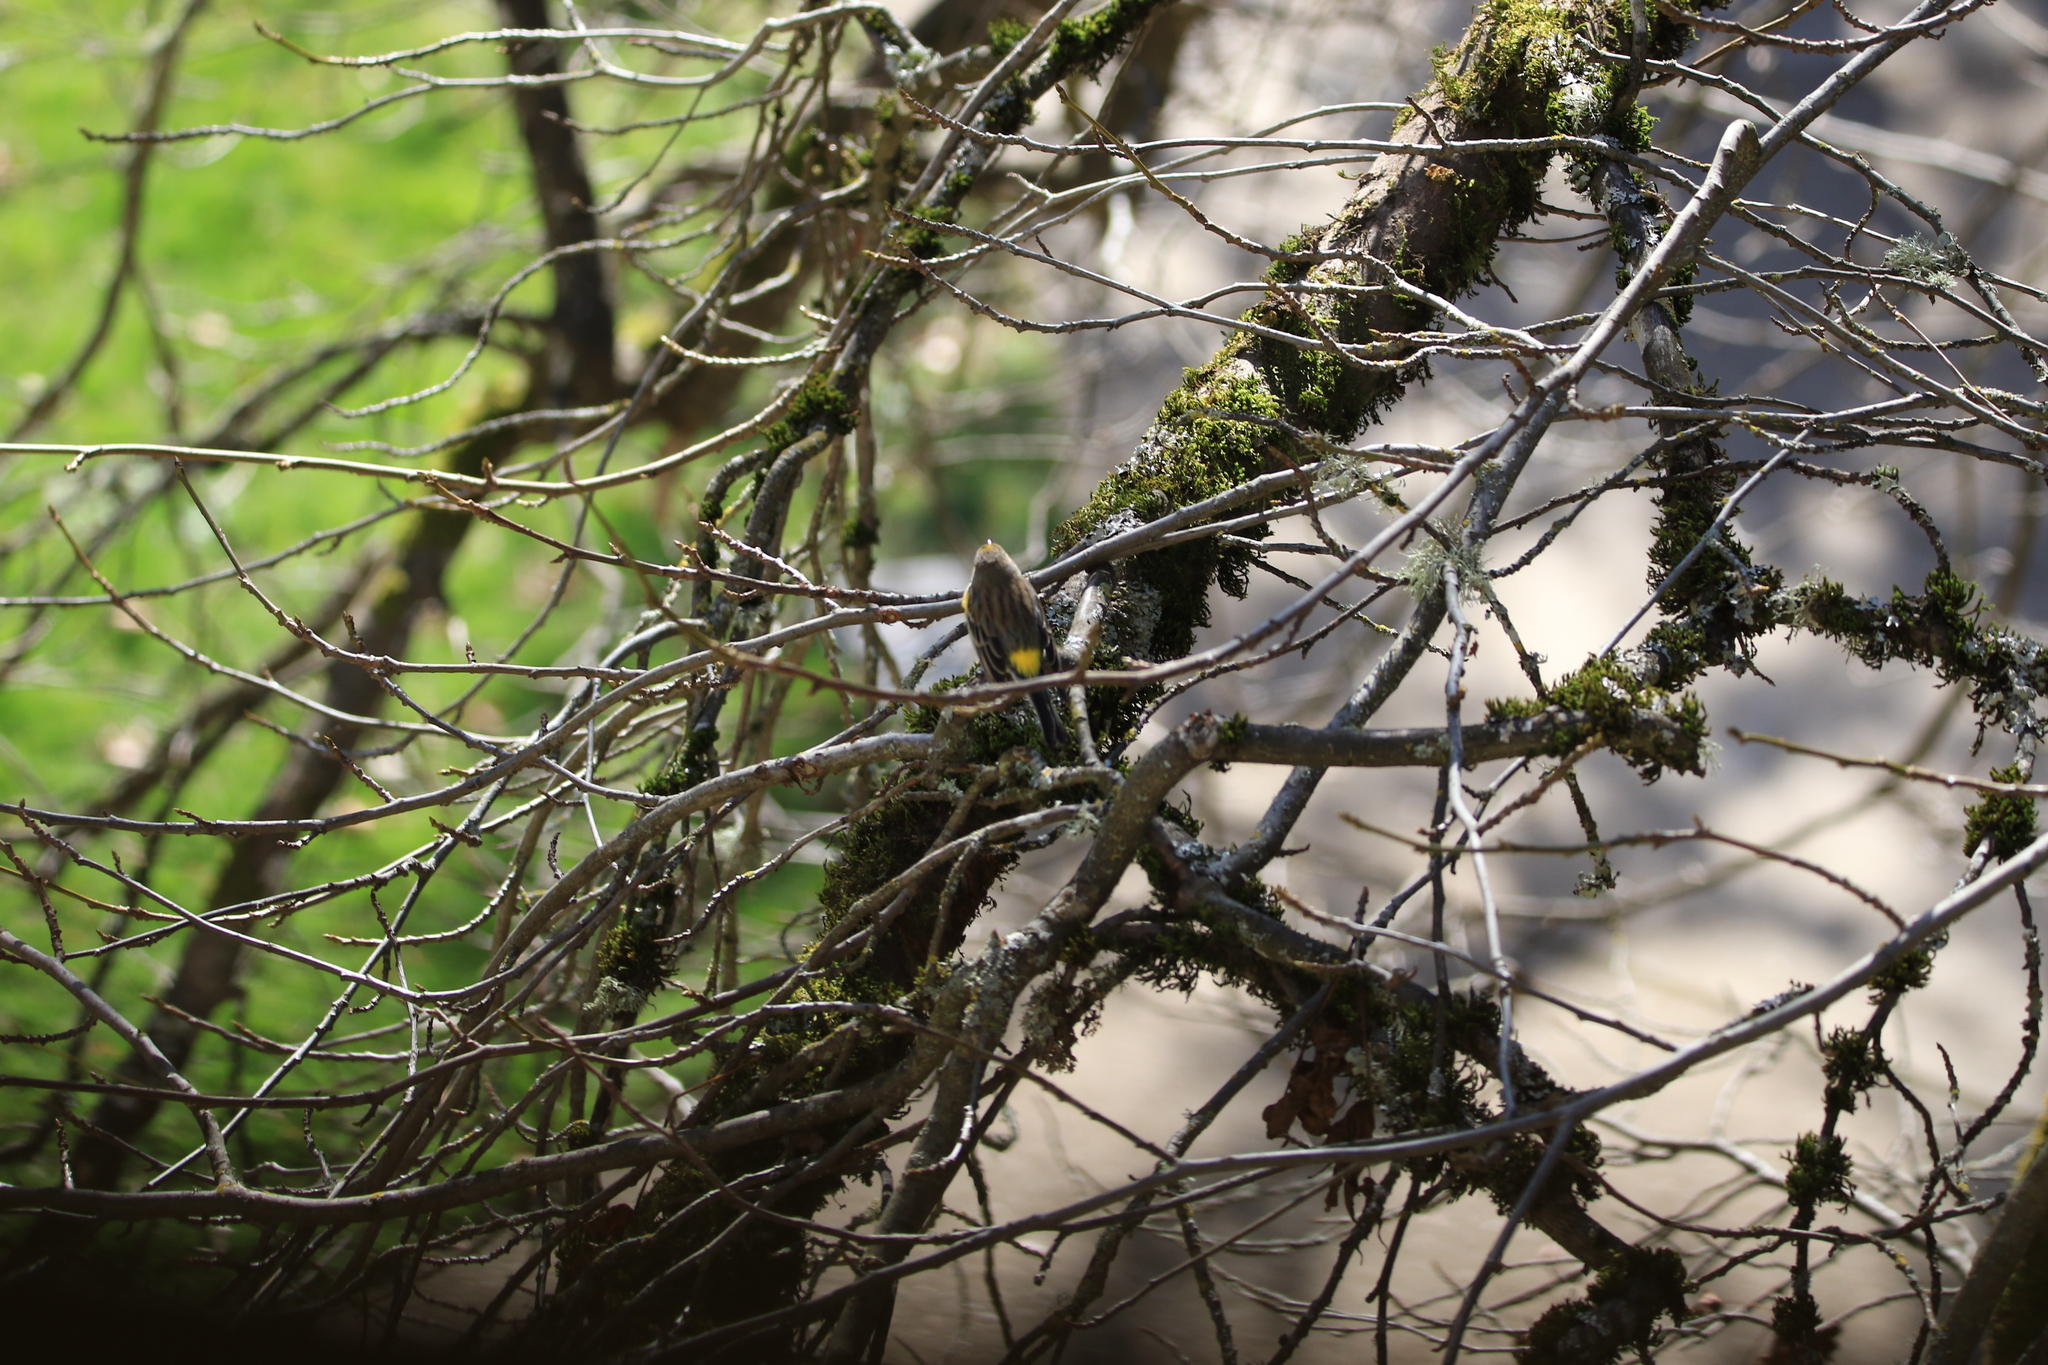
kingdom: Animalia
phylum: Chordata
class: Aves
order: Passeriformes
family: Parulidae
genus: Setophaga
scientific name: Setophaga coronata
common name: Myrtle warbler
